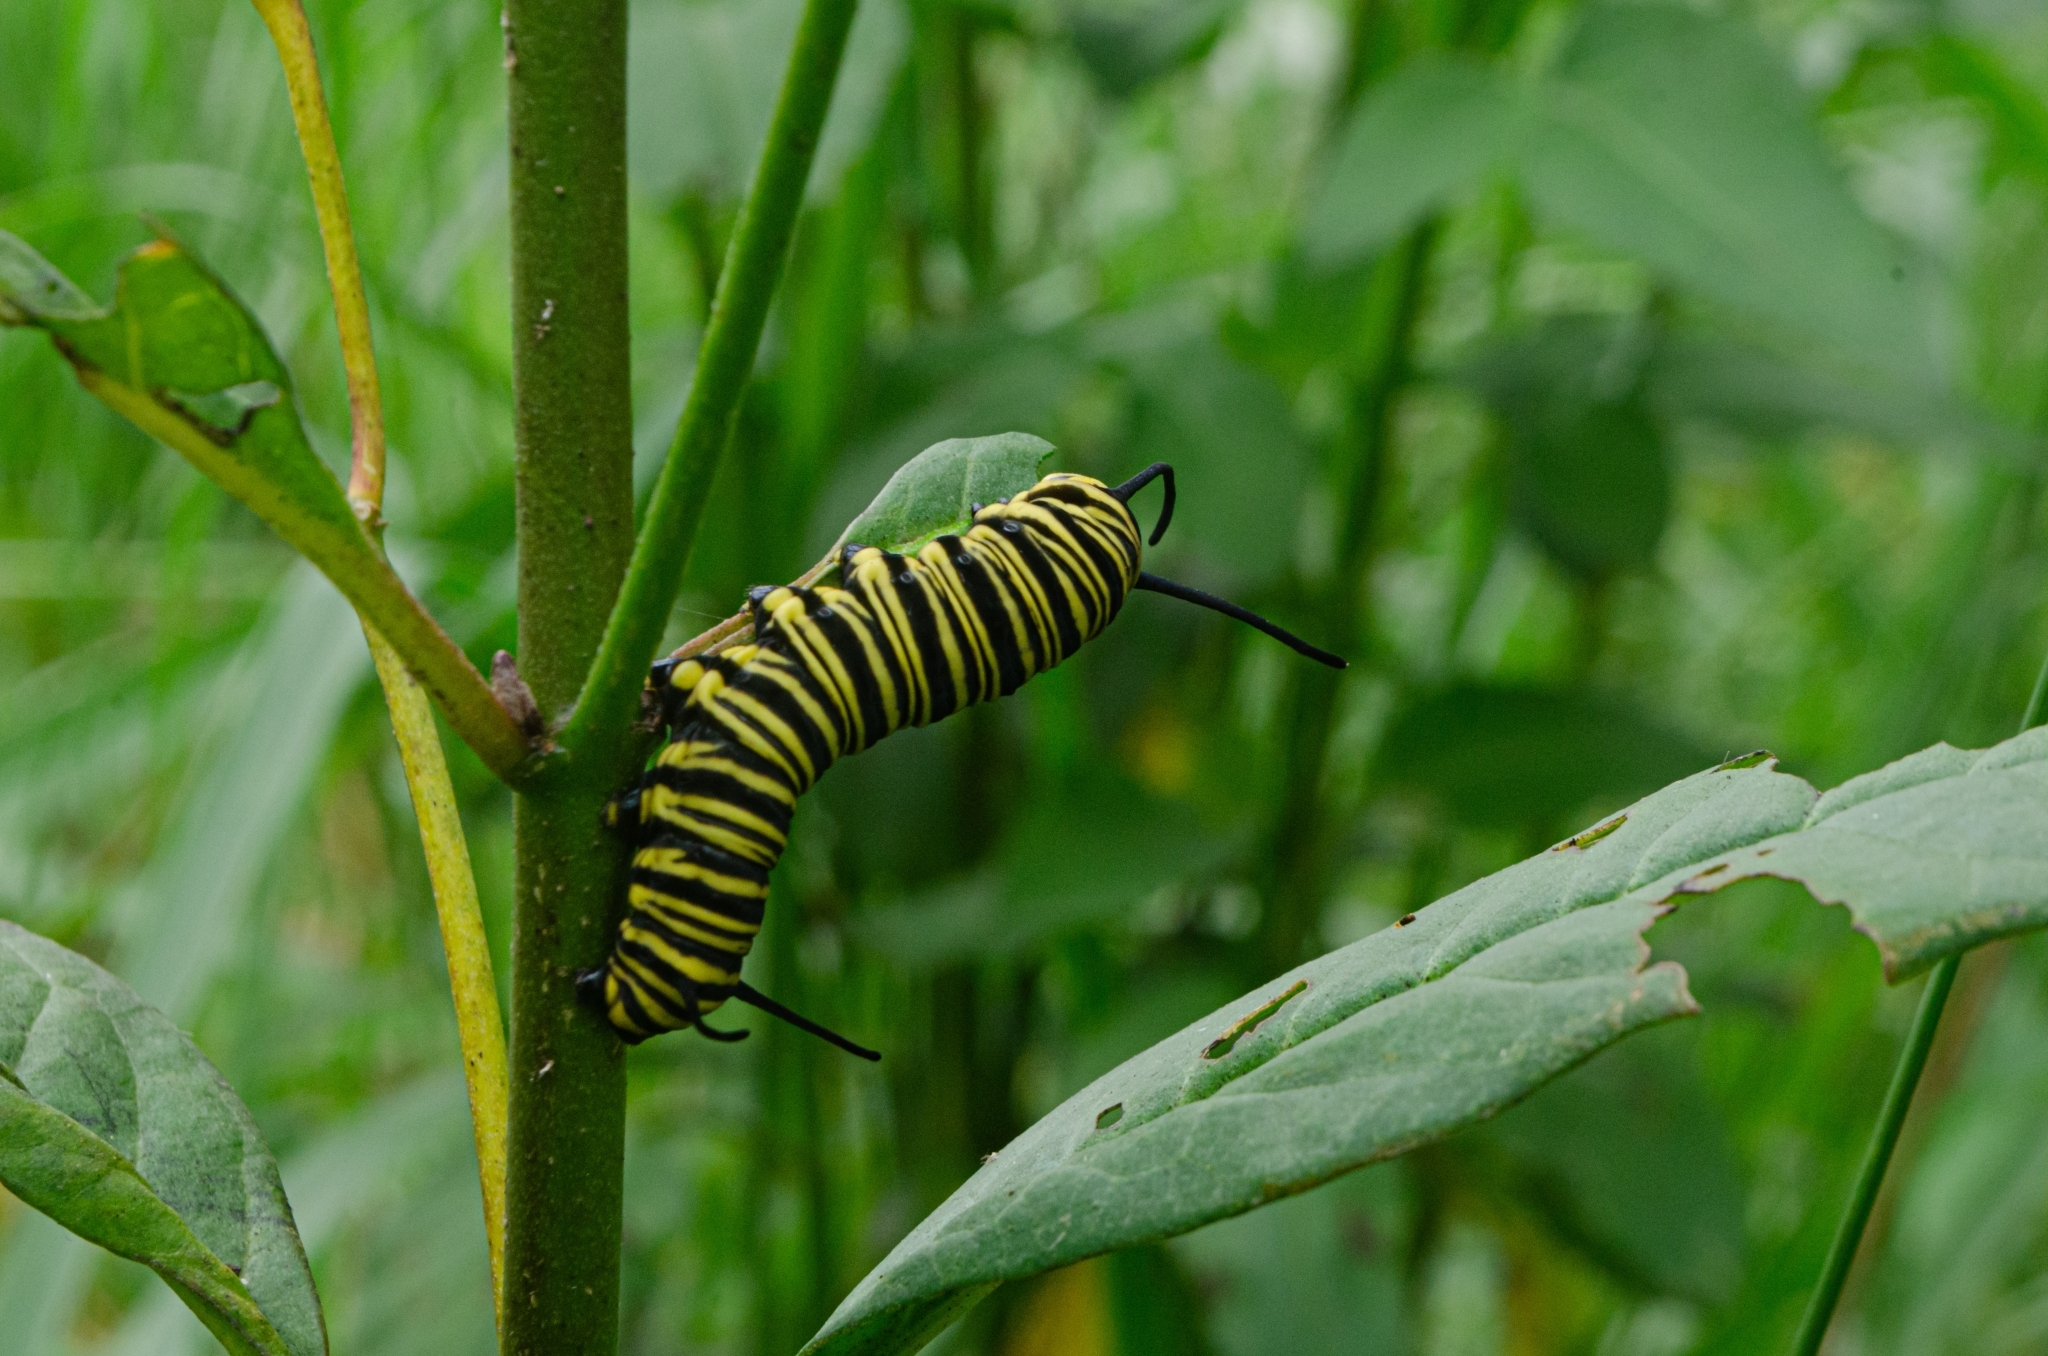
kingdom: Animalia
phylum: Arthropoda
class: Insecta
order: Lepidoptera
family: Nymphalidae
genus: Danaus
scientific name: Danaus erippus
